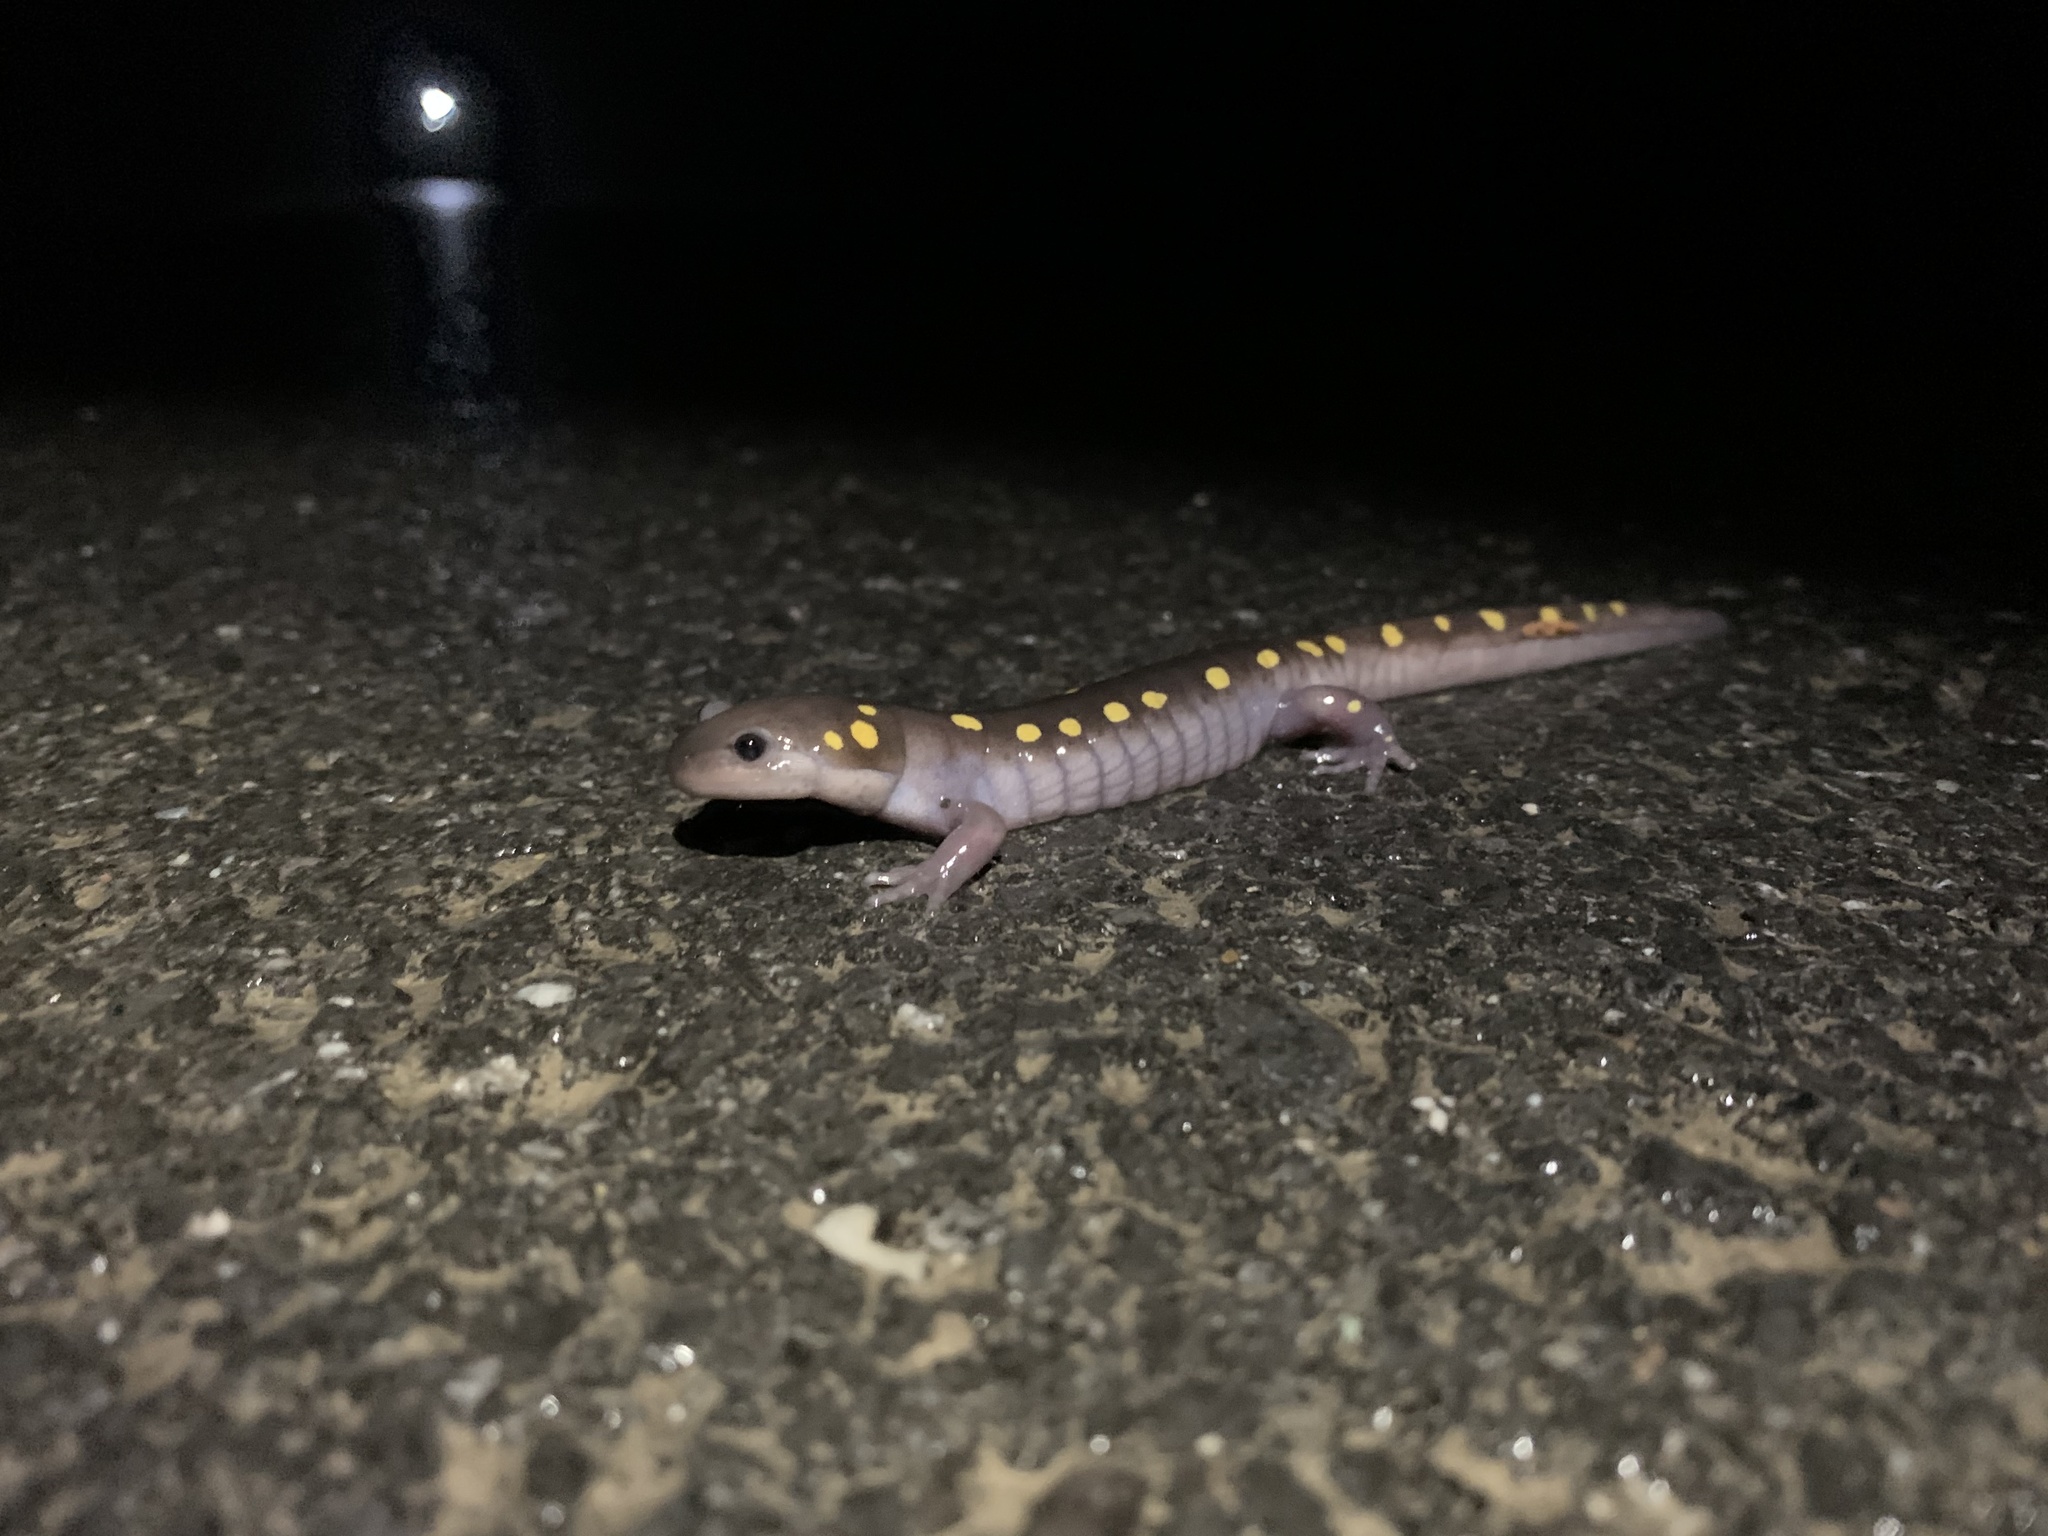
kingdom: Animalia
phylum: Chordata
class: Amphibia
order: Caudata
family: Ambystomatidae
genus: Ambystoma
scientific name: Ambystoma maculatum
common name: Spotted salamander
